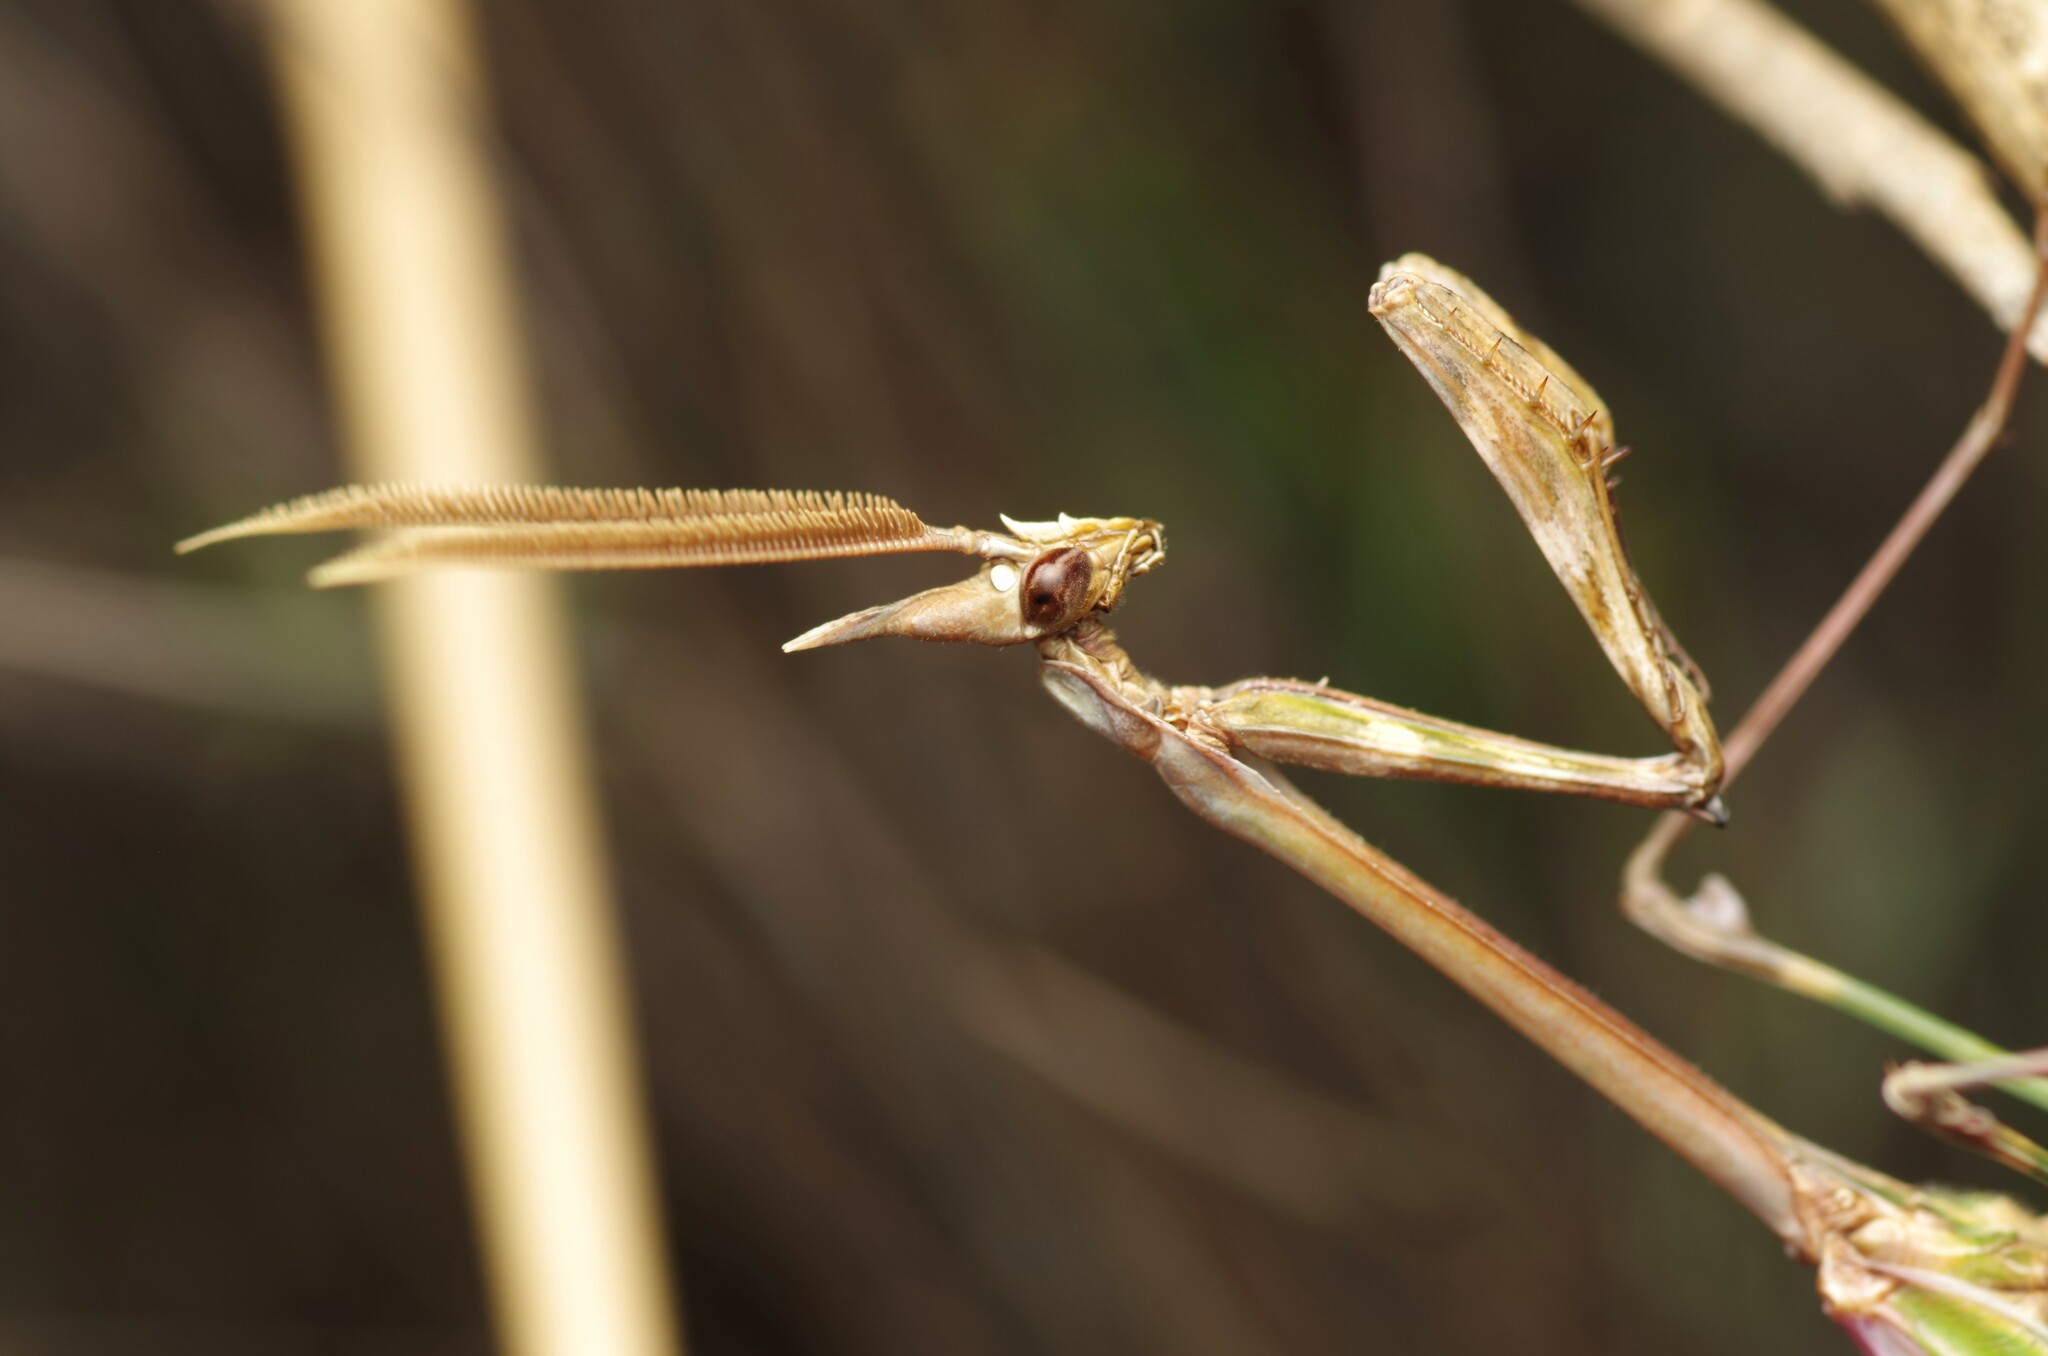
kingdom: Animalia
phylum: Arthropoda
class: Insecta
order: Mantodea
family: Empusidae
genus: Empusa
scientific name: Empusa pennata
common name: Conehead mantis
